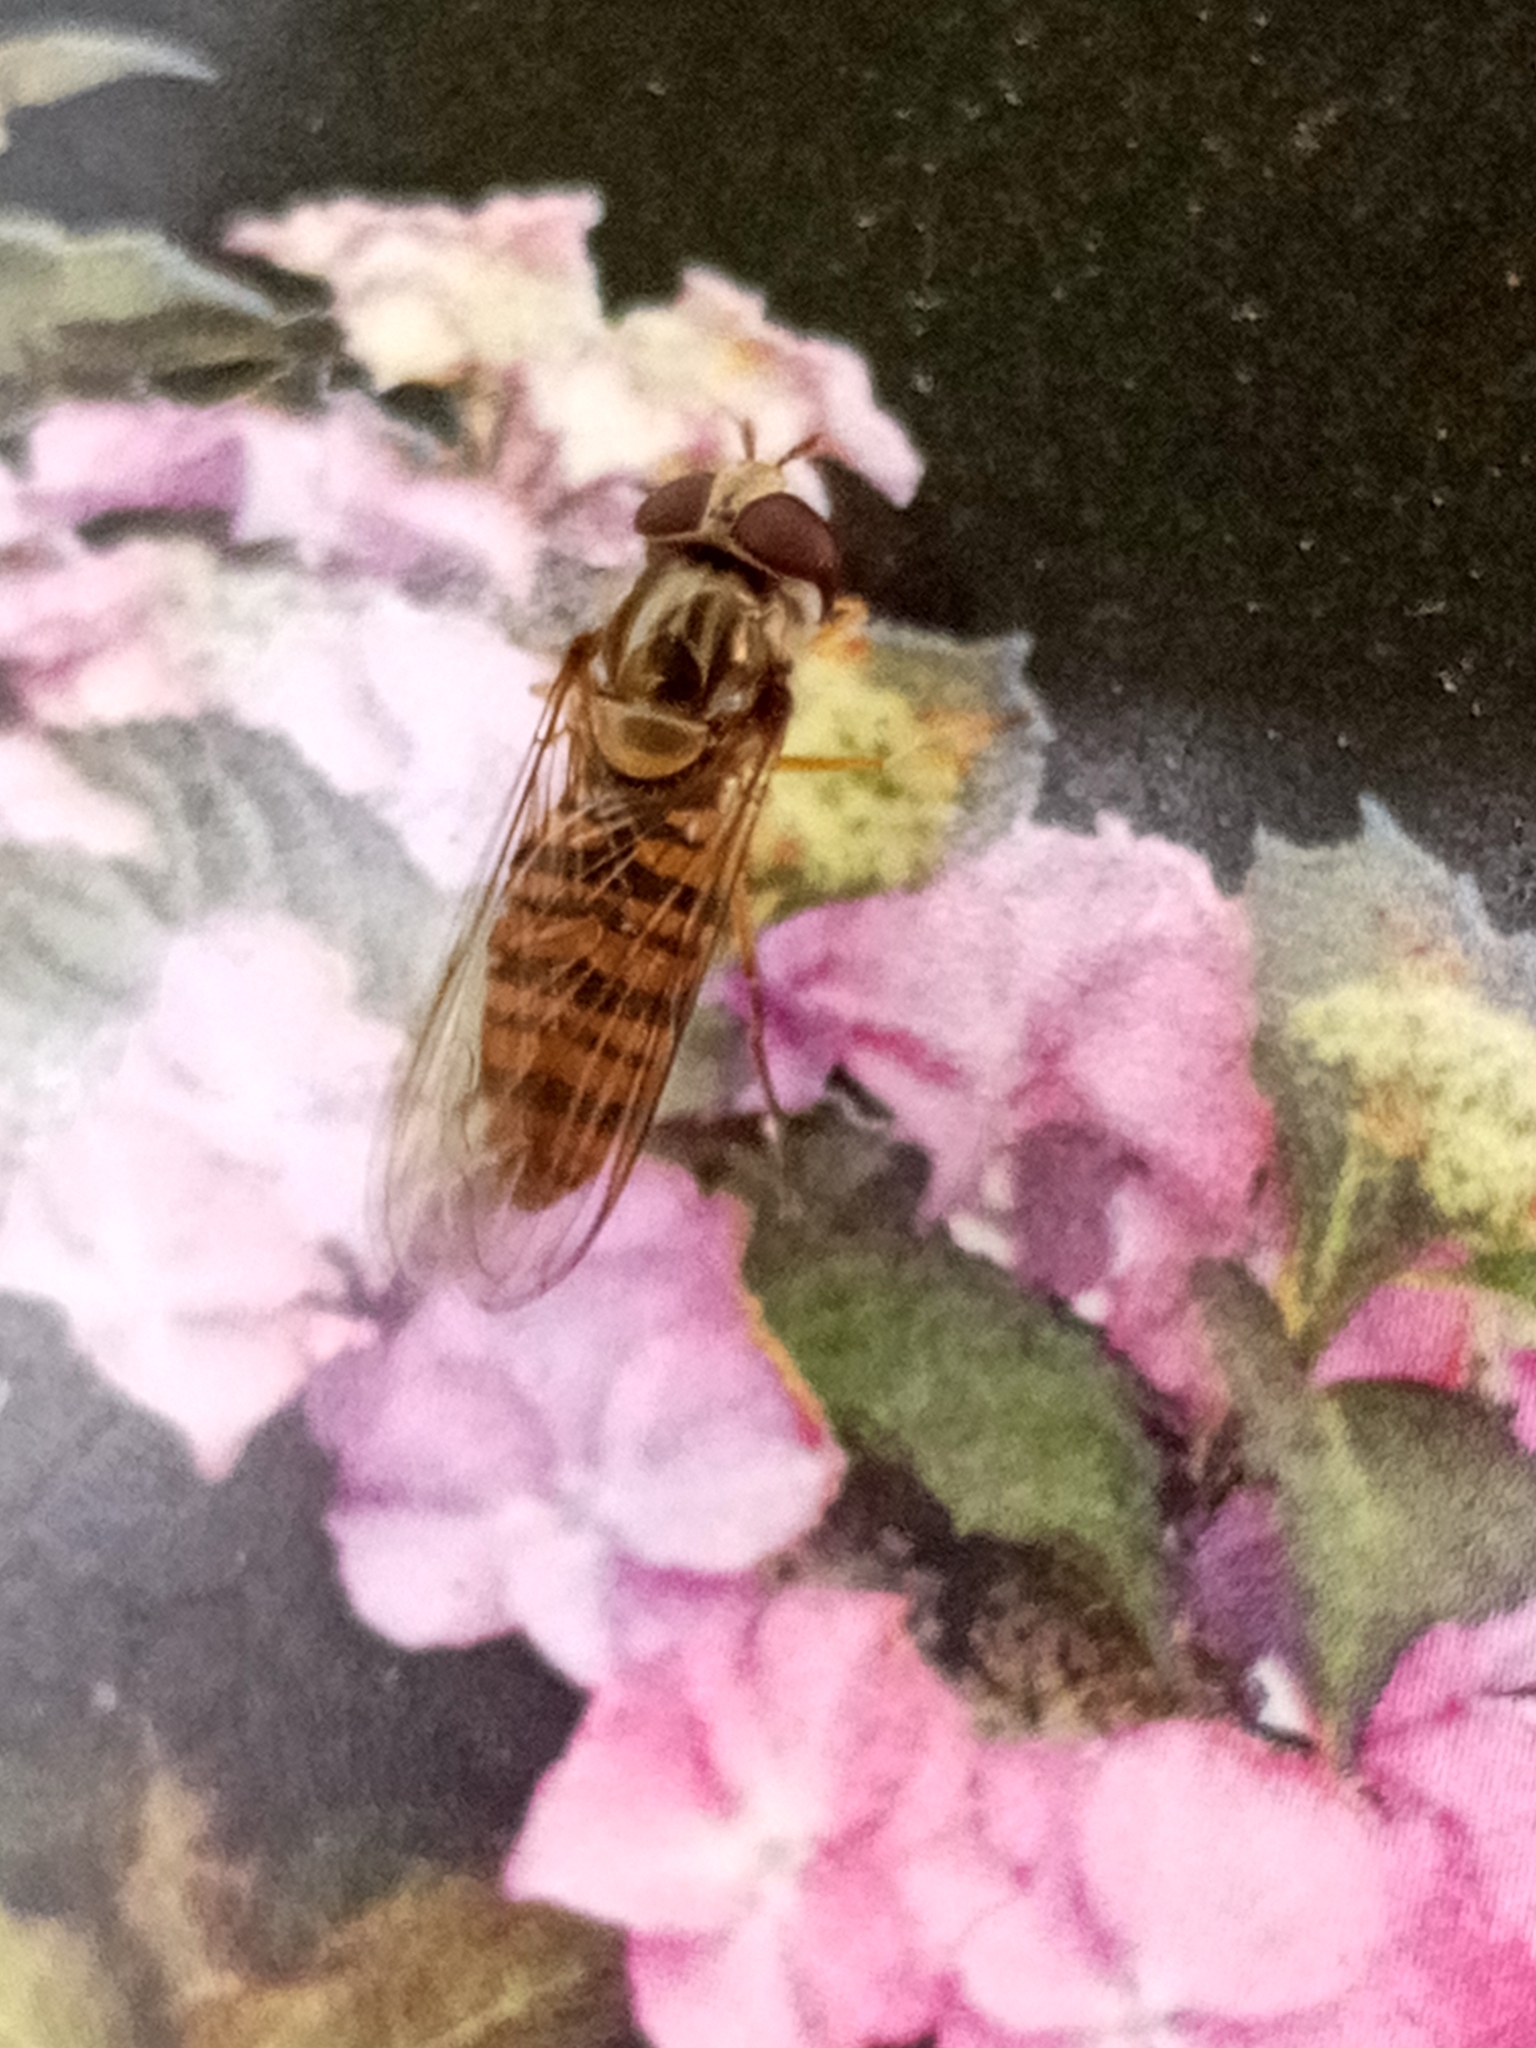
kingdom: Animalia
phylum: Arthropoda
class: Insecta
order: Diptera
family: Syrphidae
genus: Episyrphus
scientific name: Episyrphus balteatus
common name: Marmalade hoverfly
